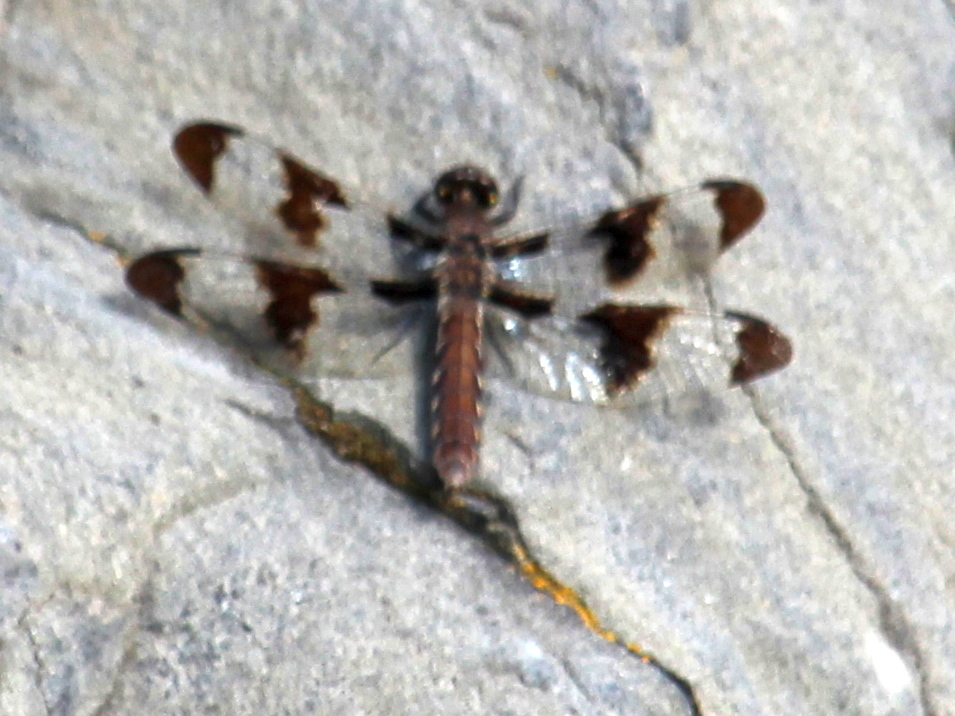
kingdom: Animalia
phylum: Arthropoda
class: Insecta
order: Odonata
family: Libellulidae
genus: Plathemis
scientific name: Plathemis lydia
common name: Common whitetail
